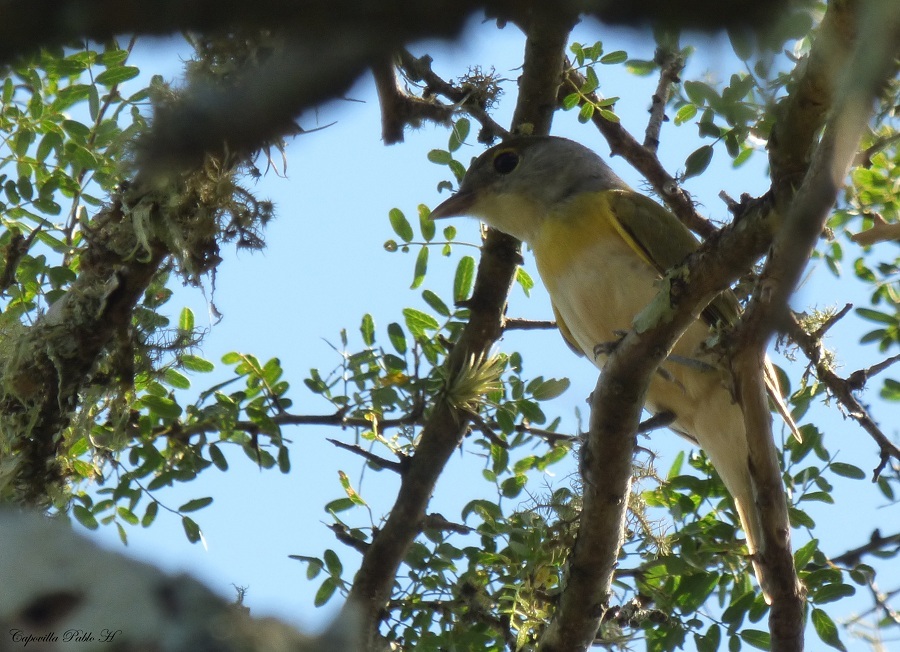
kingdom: Animalia
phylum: Chordata
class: Aves
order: Passeriformes
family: Cotingidae
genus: Pachyramphus
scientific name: Pachyramphus viridis
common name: Green-backed becard
